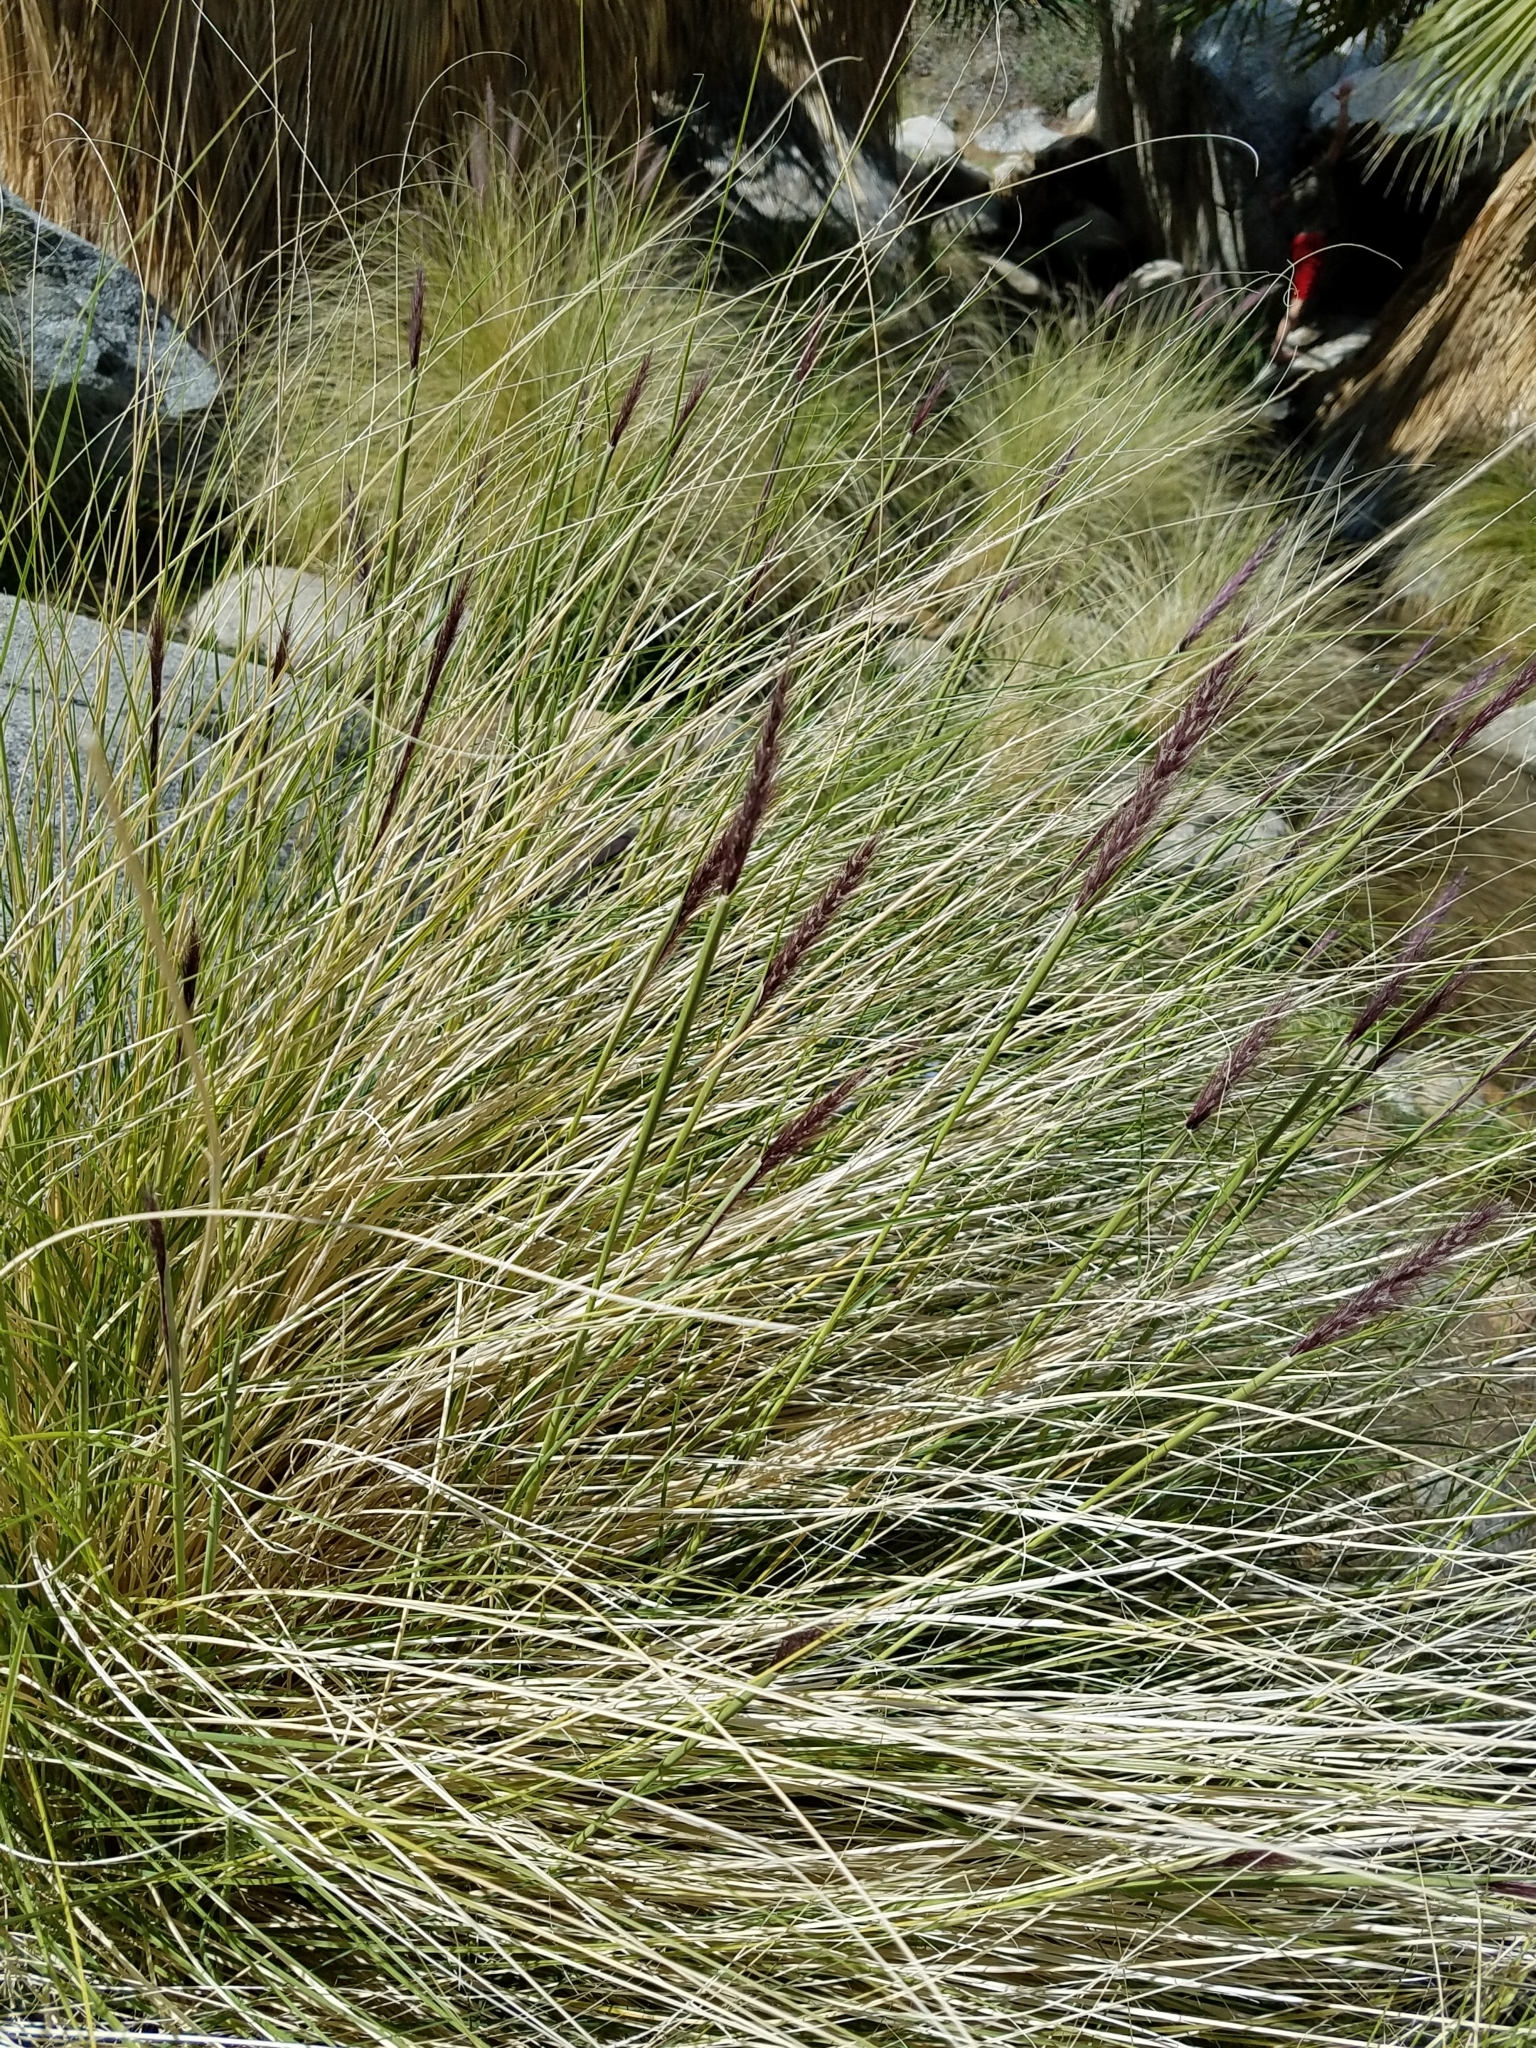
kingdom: Plantae
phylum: Tracheophyta
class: Liliopsida
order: Poales
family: Poaceae
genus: Cenchrus
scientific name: Cenchrus setaceus
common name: Crimson fountaingrass
